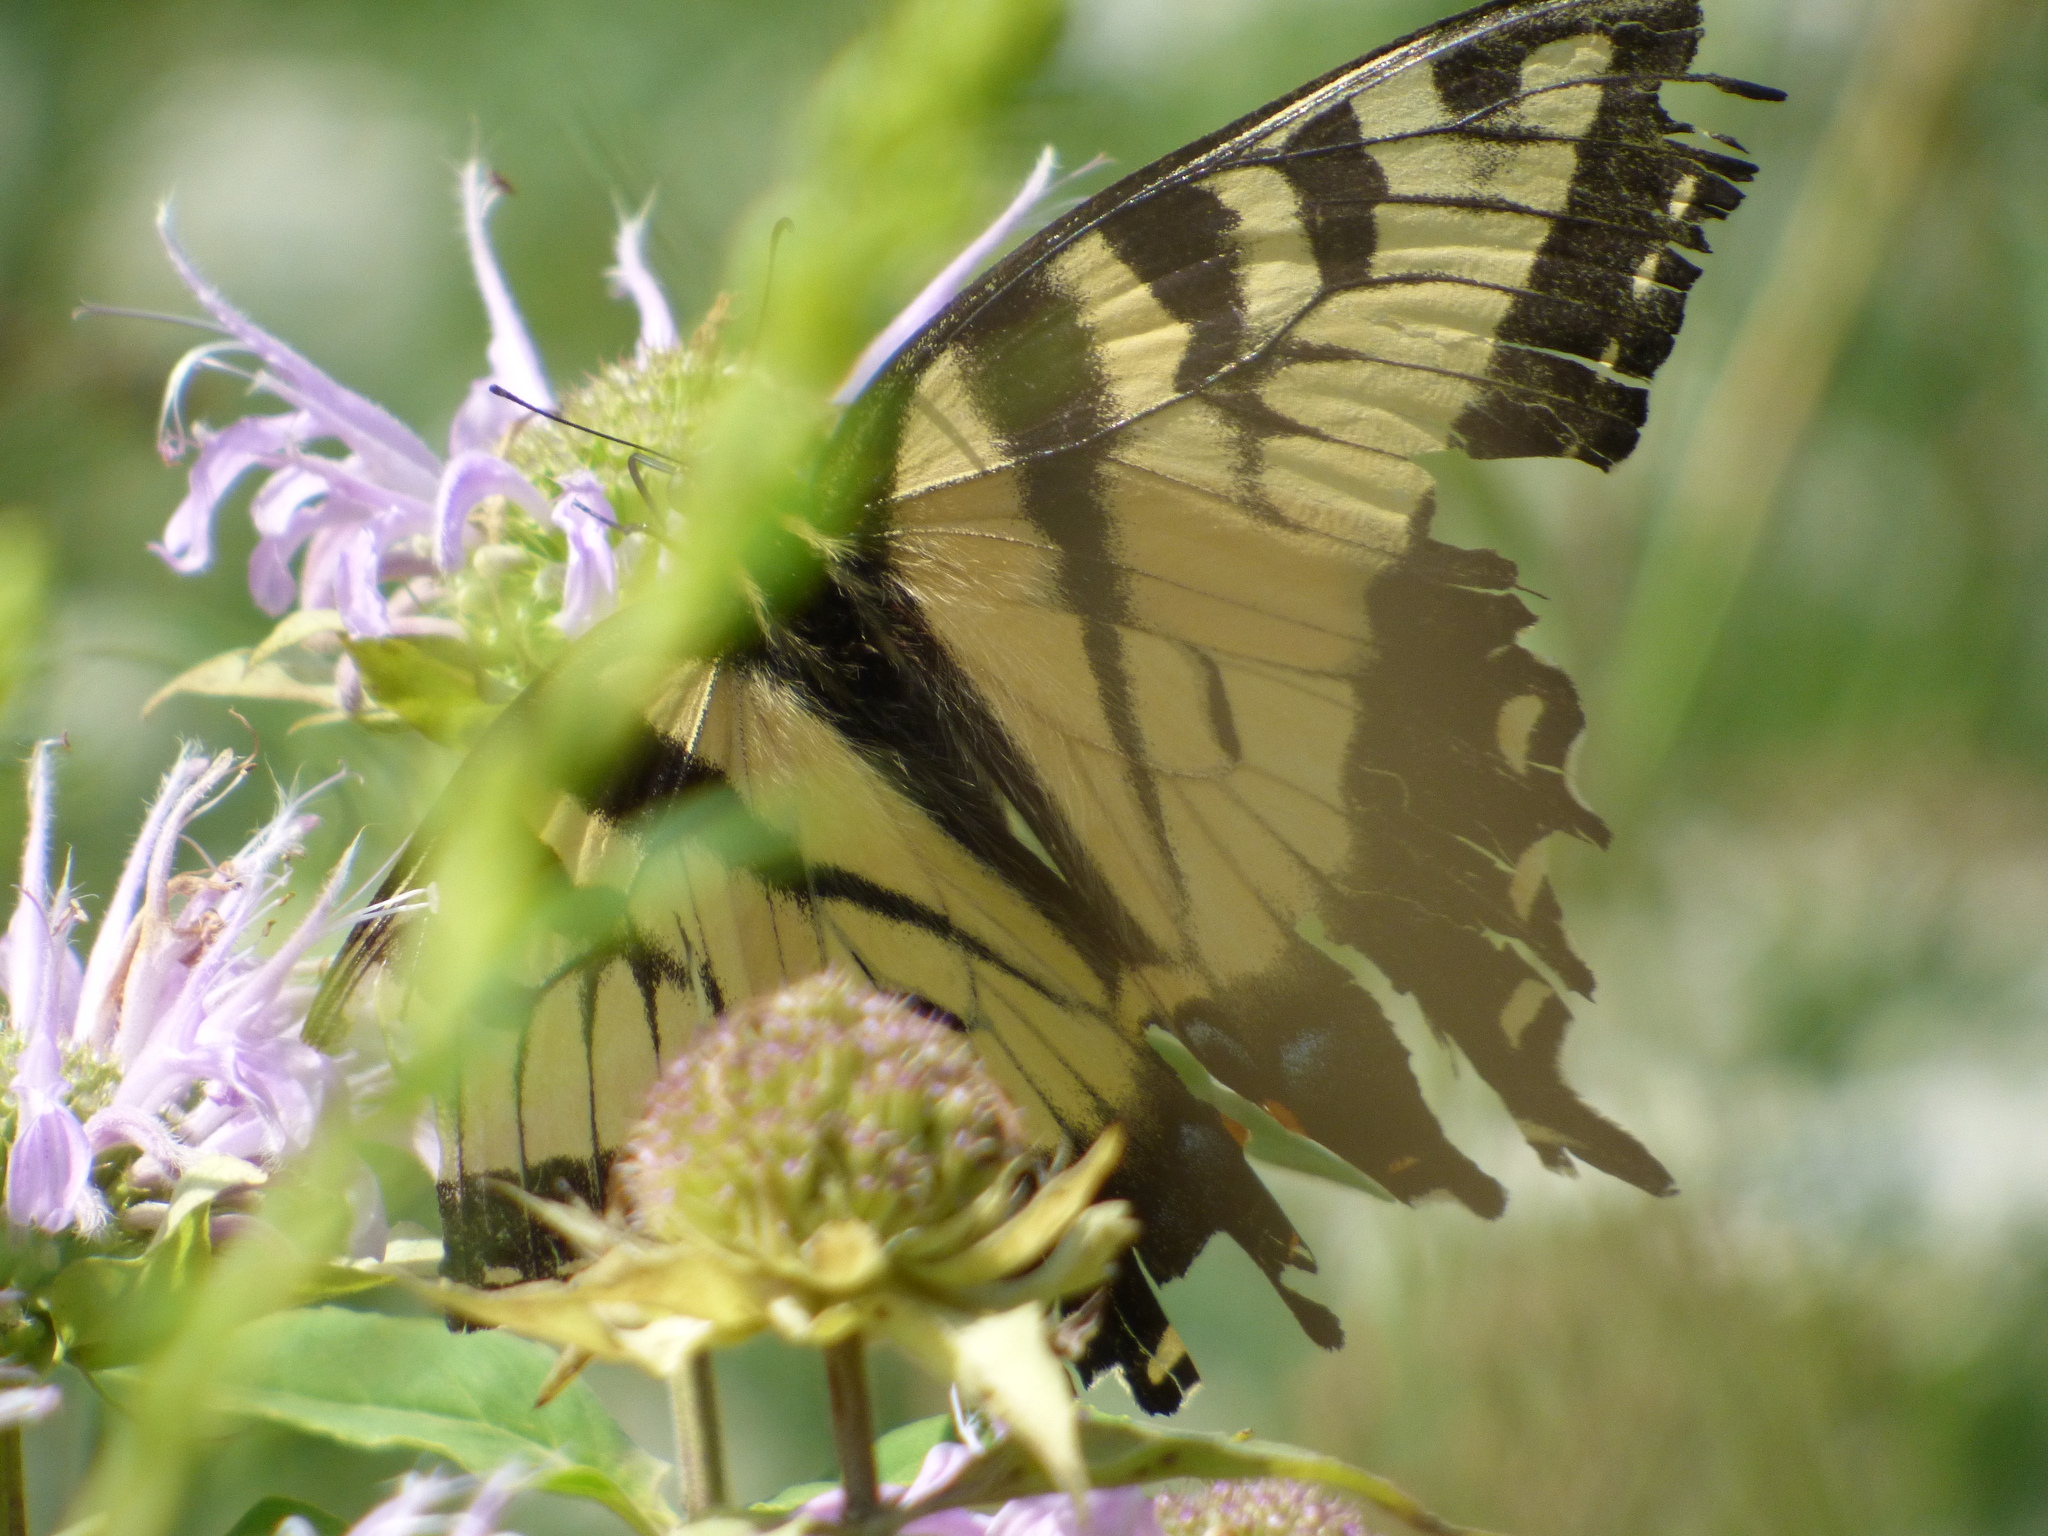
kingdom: Animalia
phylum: Arthropoda
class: Insecta
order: Lepidoptera
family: Papilionidae
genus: Papilio
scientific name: Papilio glaucus
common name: Tiger swallowtail
